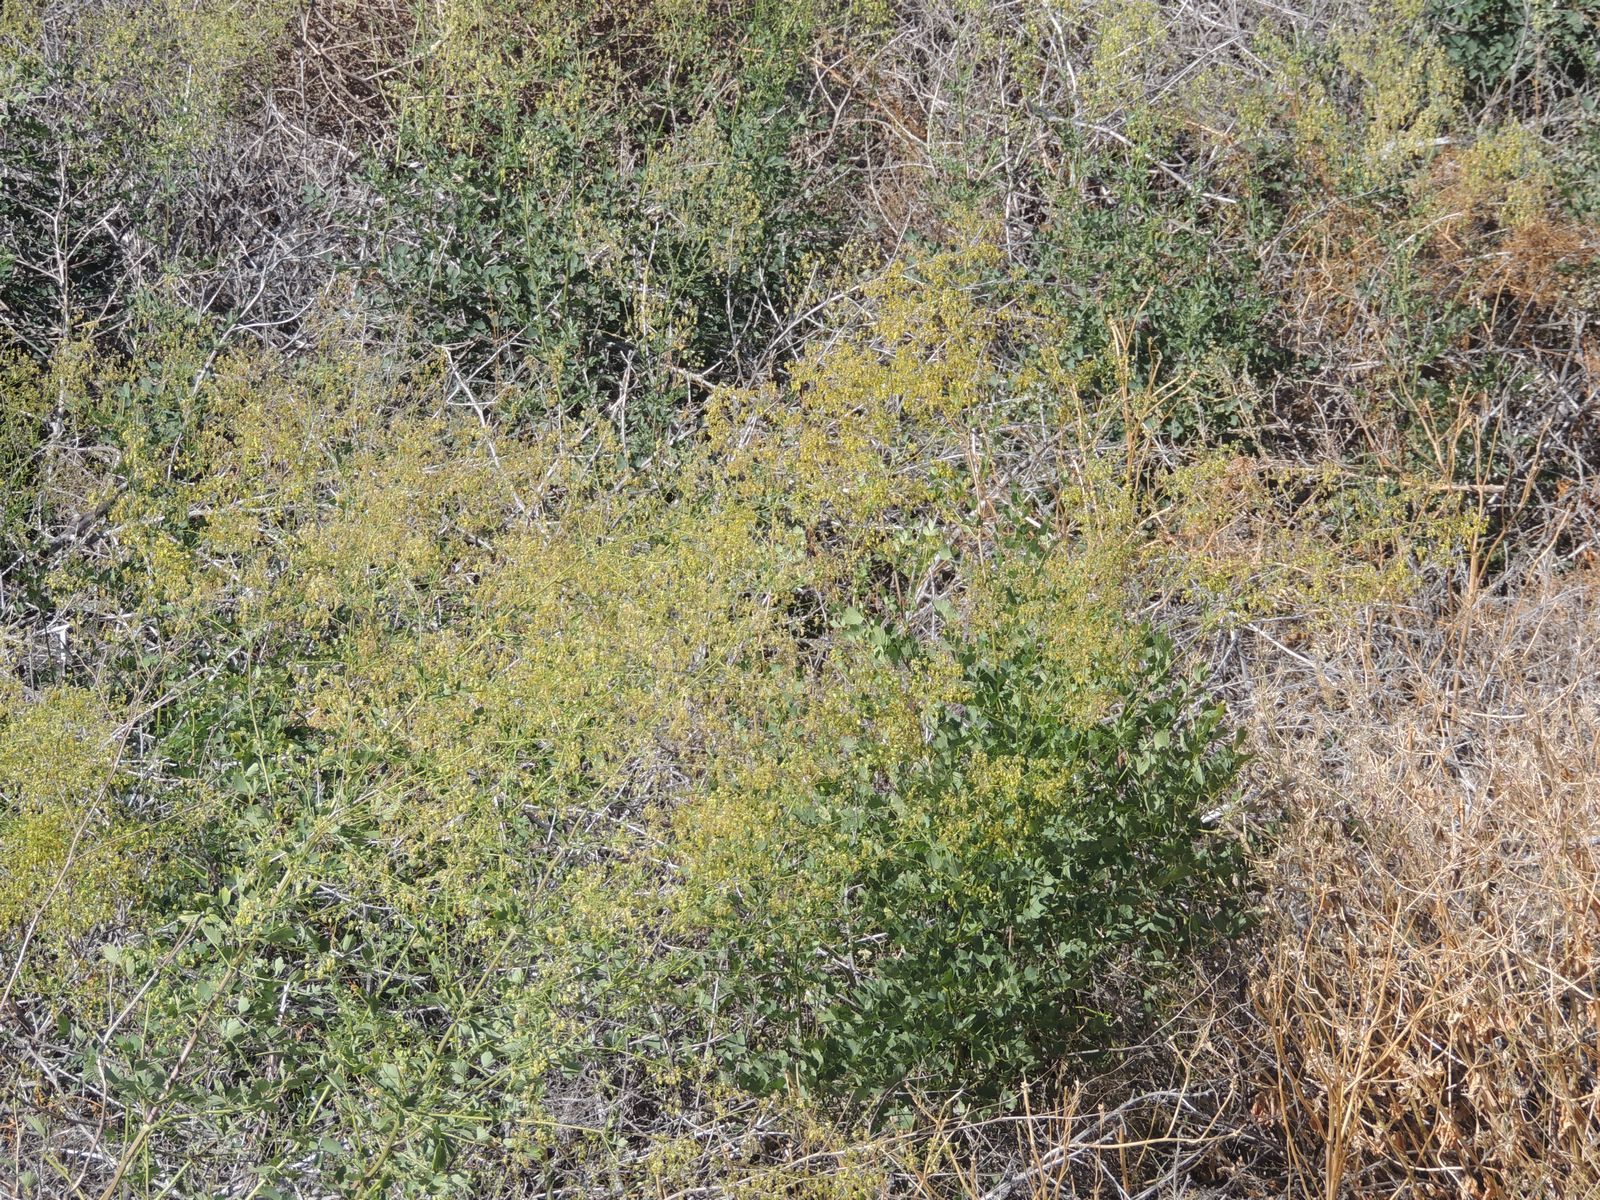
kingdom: Plantae
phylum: Tracheophyta
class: Magnoliopsida
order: Ranunculales
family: Ranunculaceae
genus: Thalictrum
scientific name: Thalictrum minus
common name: Lesser meadow-rue
